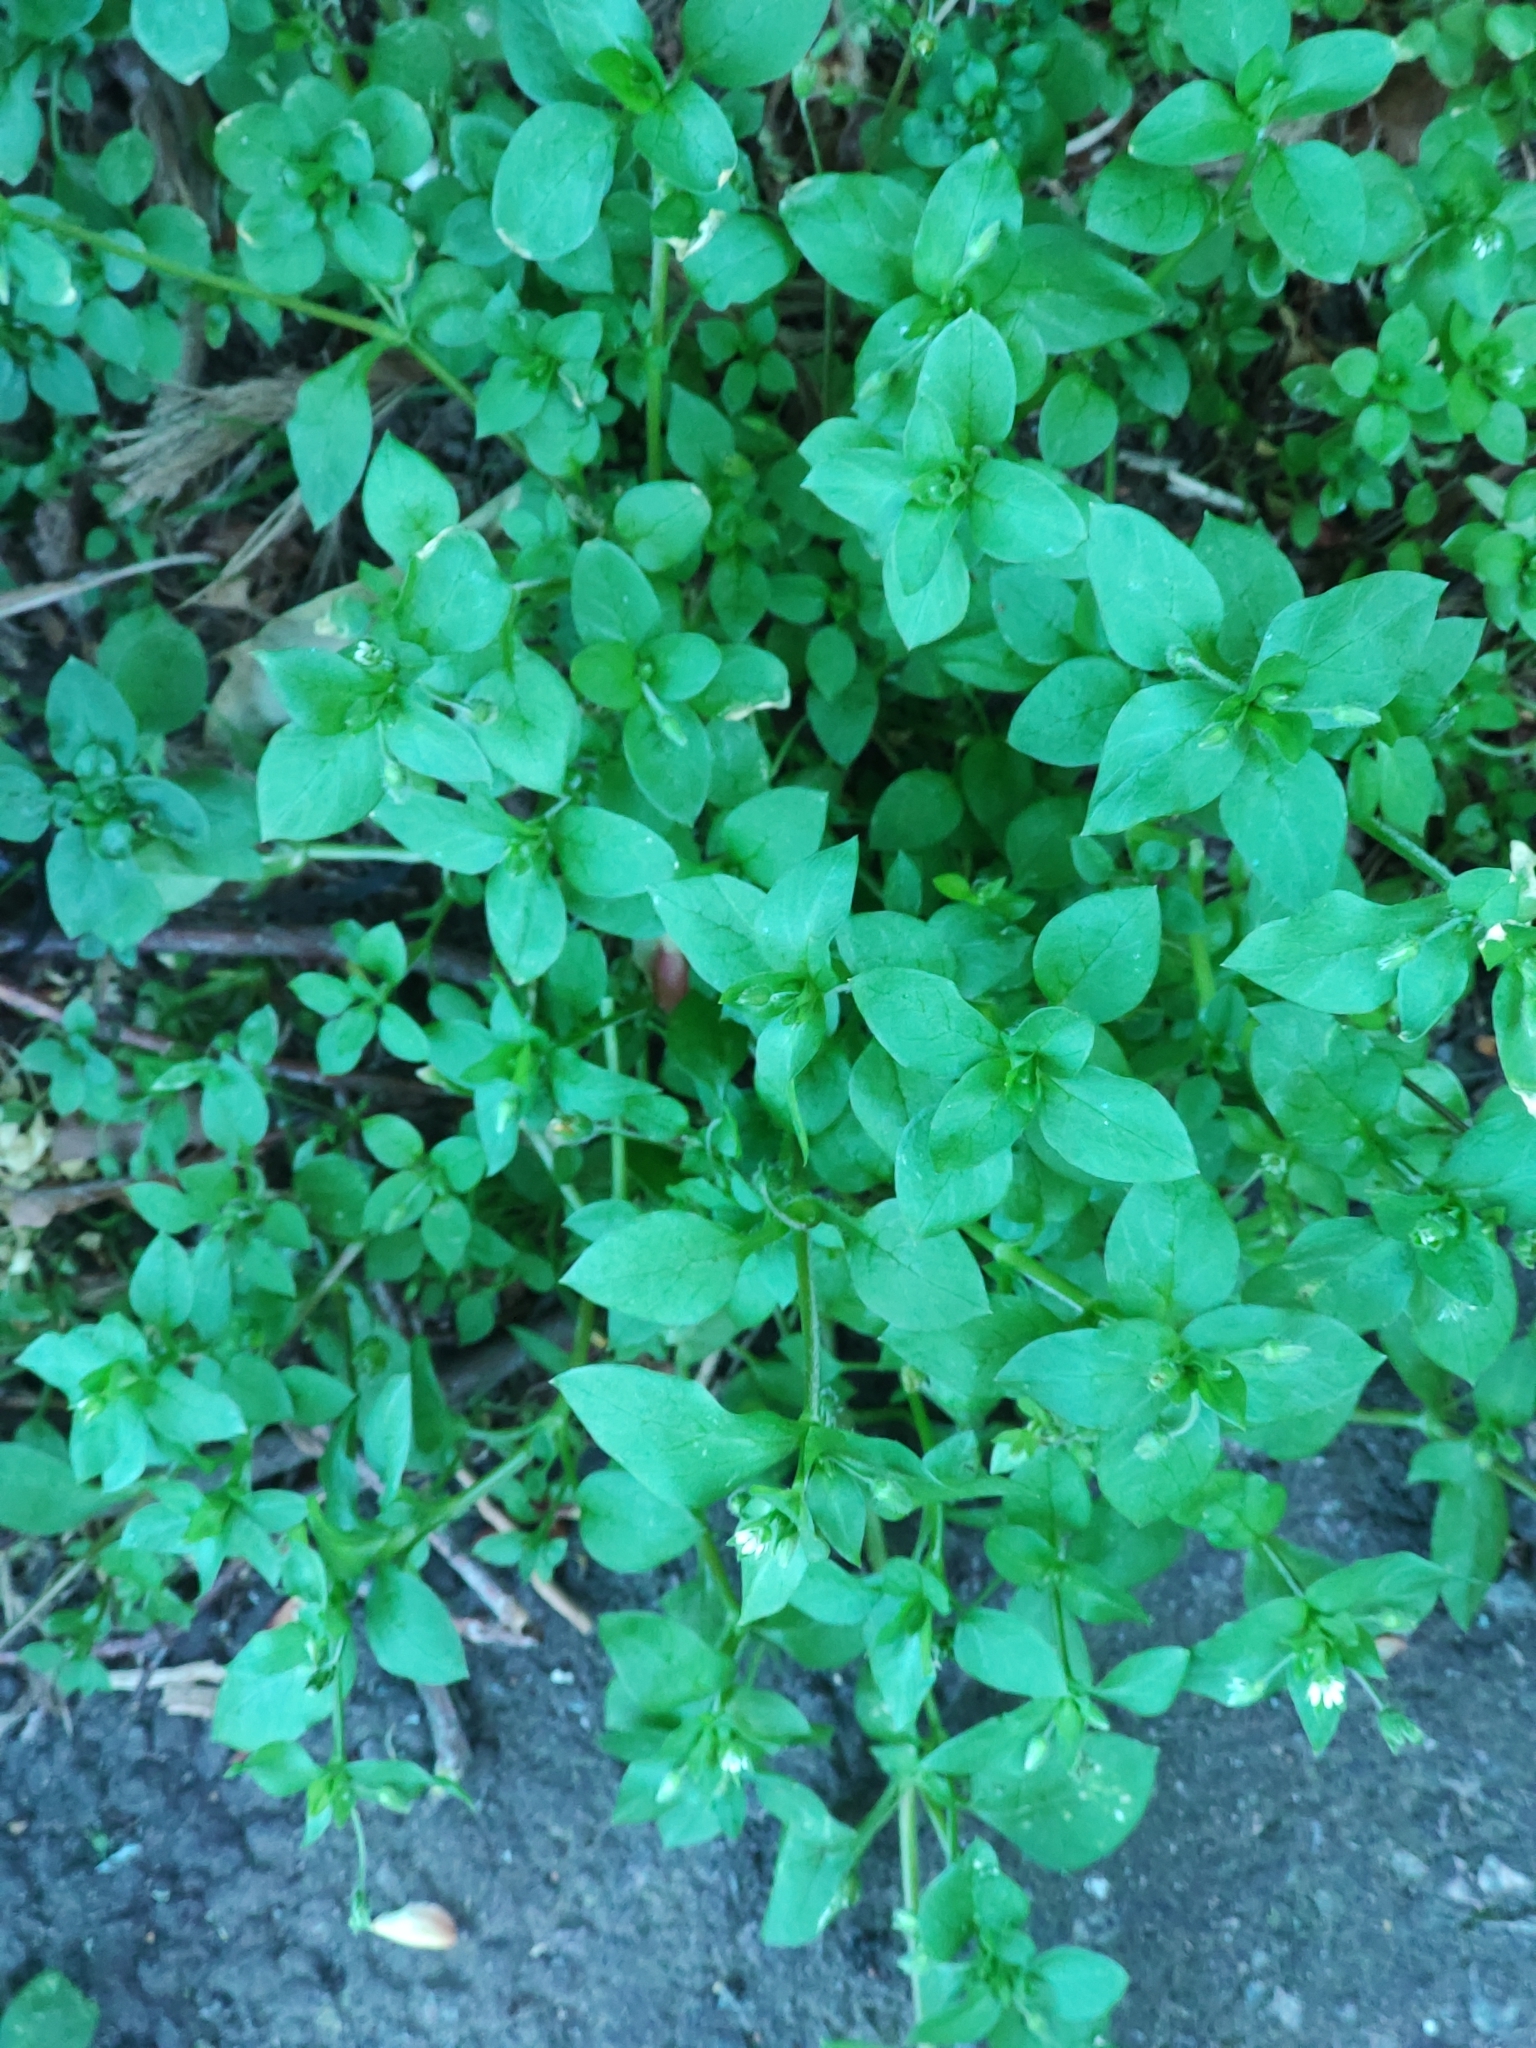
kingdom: Plantae
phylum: Tracheophyta
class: Magnoliopsida
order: Caryophyllales
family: Caryophyllaceae
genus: Stellaria
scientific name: Stellaria media
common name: Common chickweed
